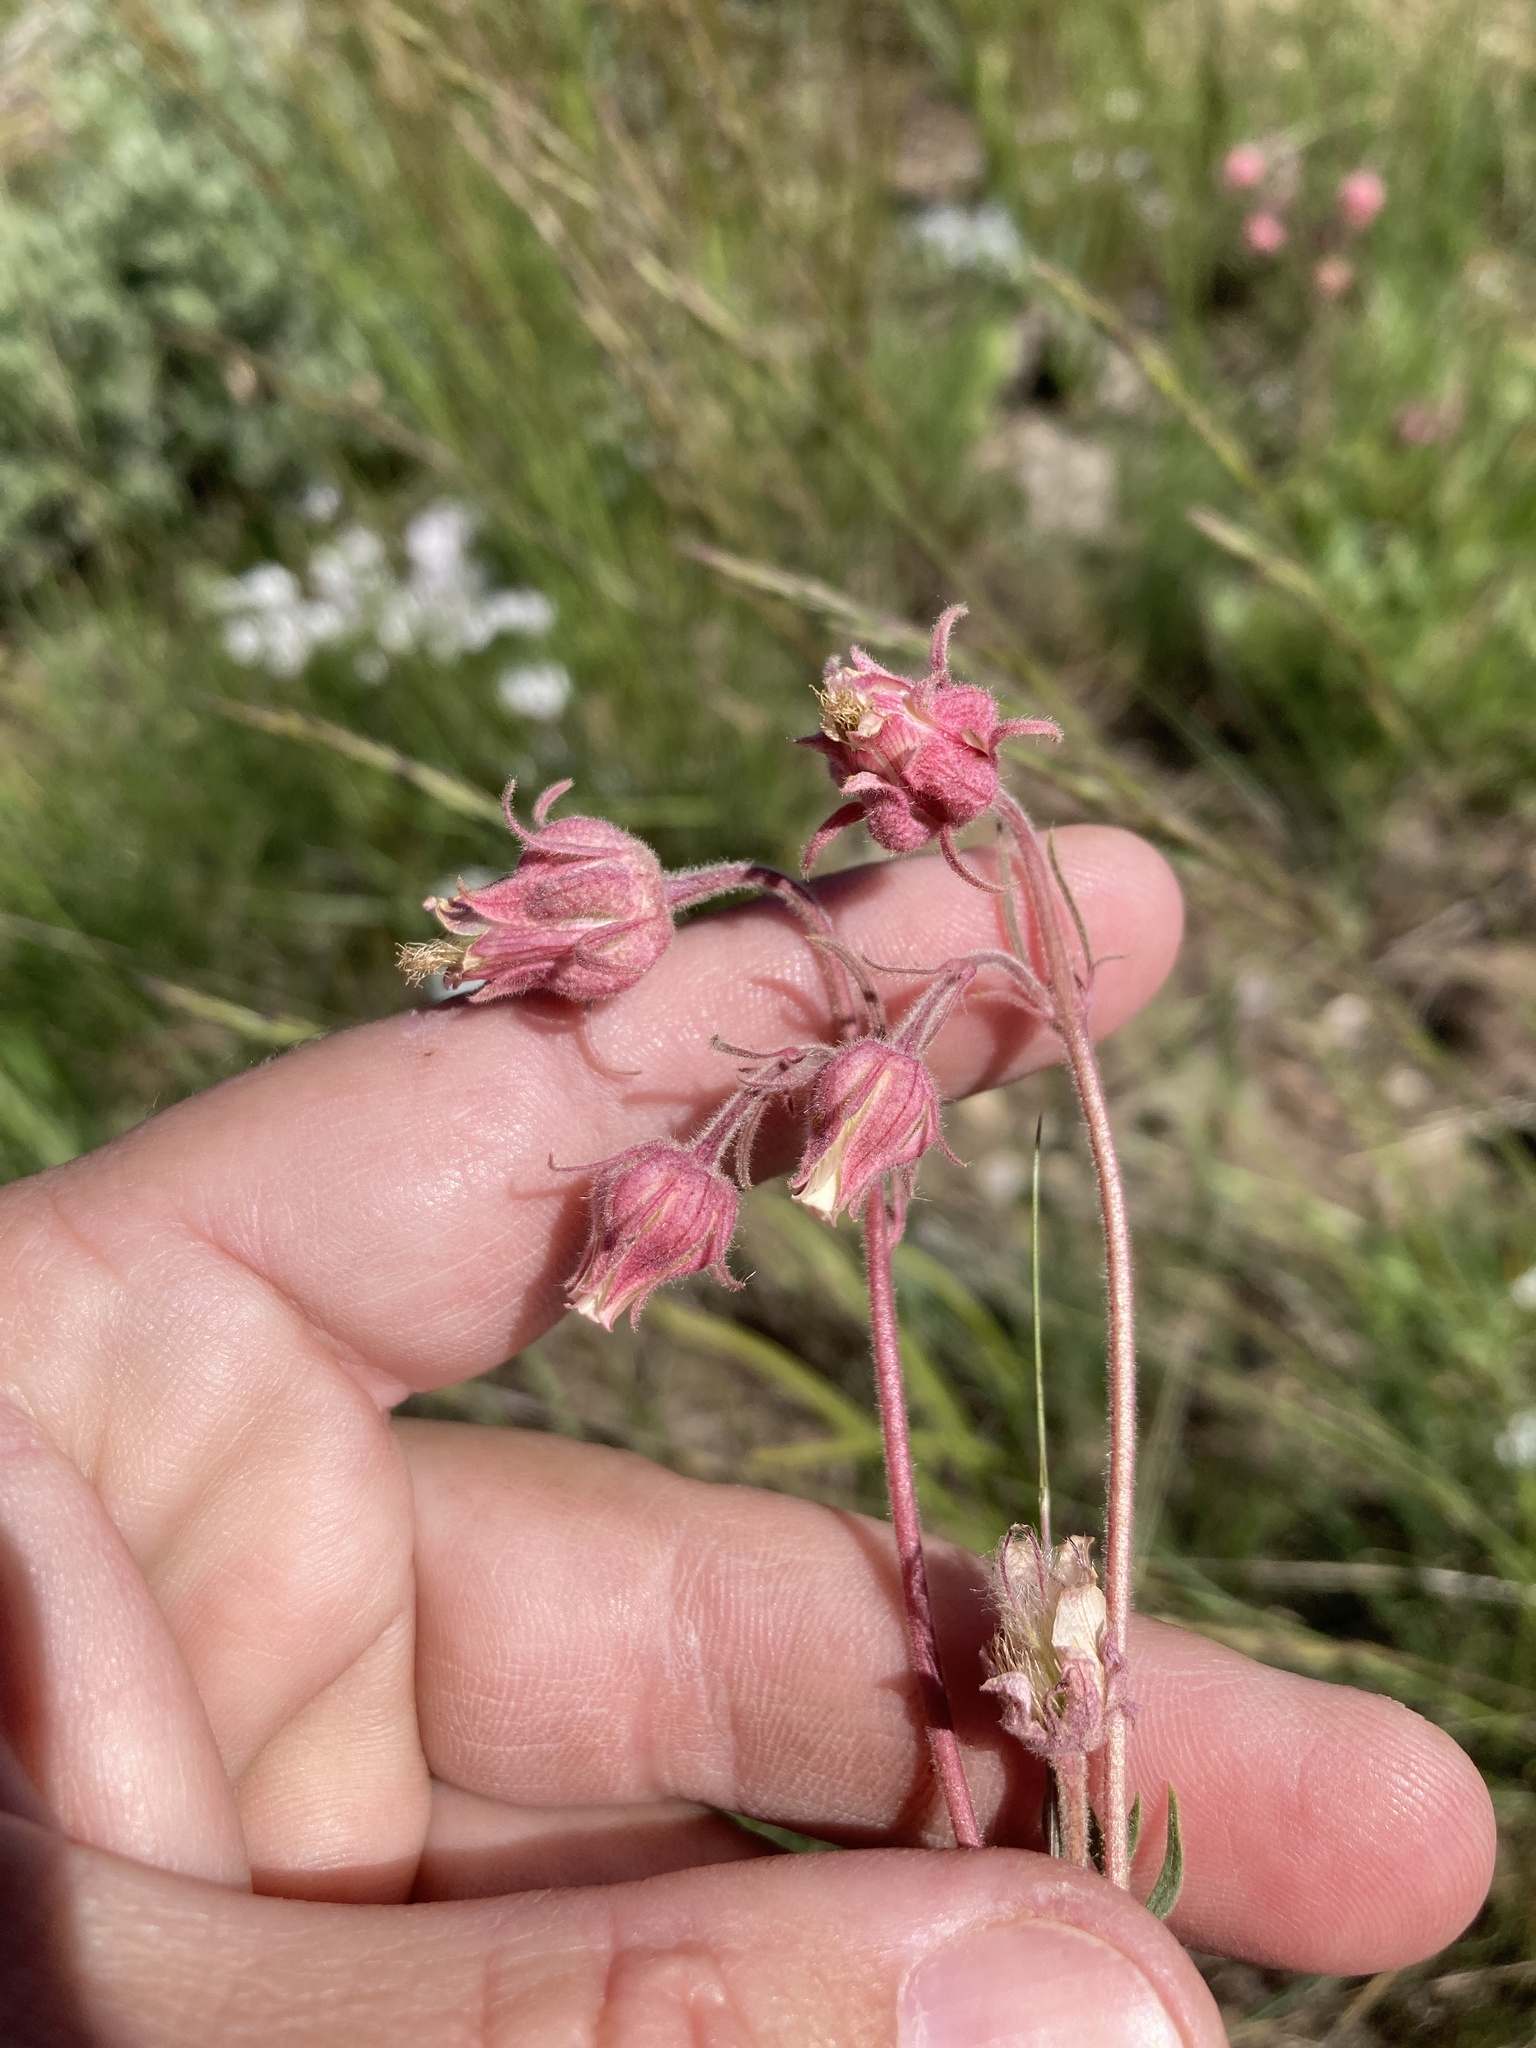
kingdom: Plantae
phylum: Tracheophyta
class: Magnoliopsida
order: Rosales
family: Rosaceae
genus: Geum
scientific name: Geum triflorum
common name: Old man's whiskers
